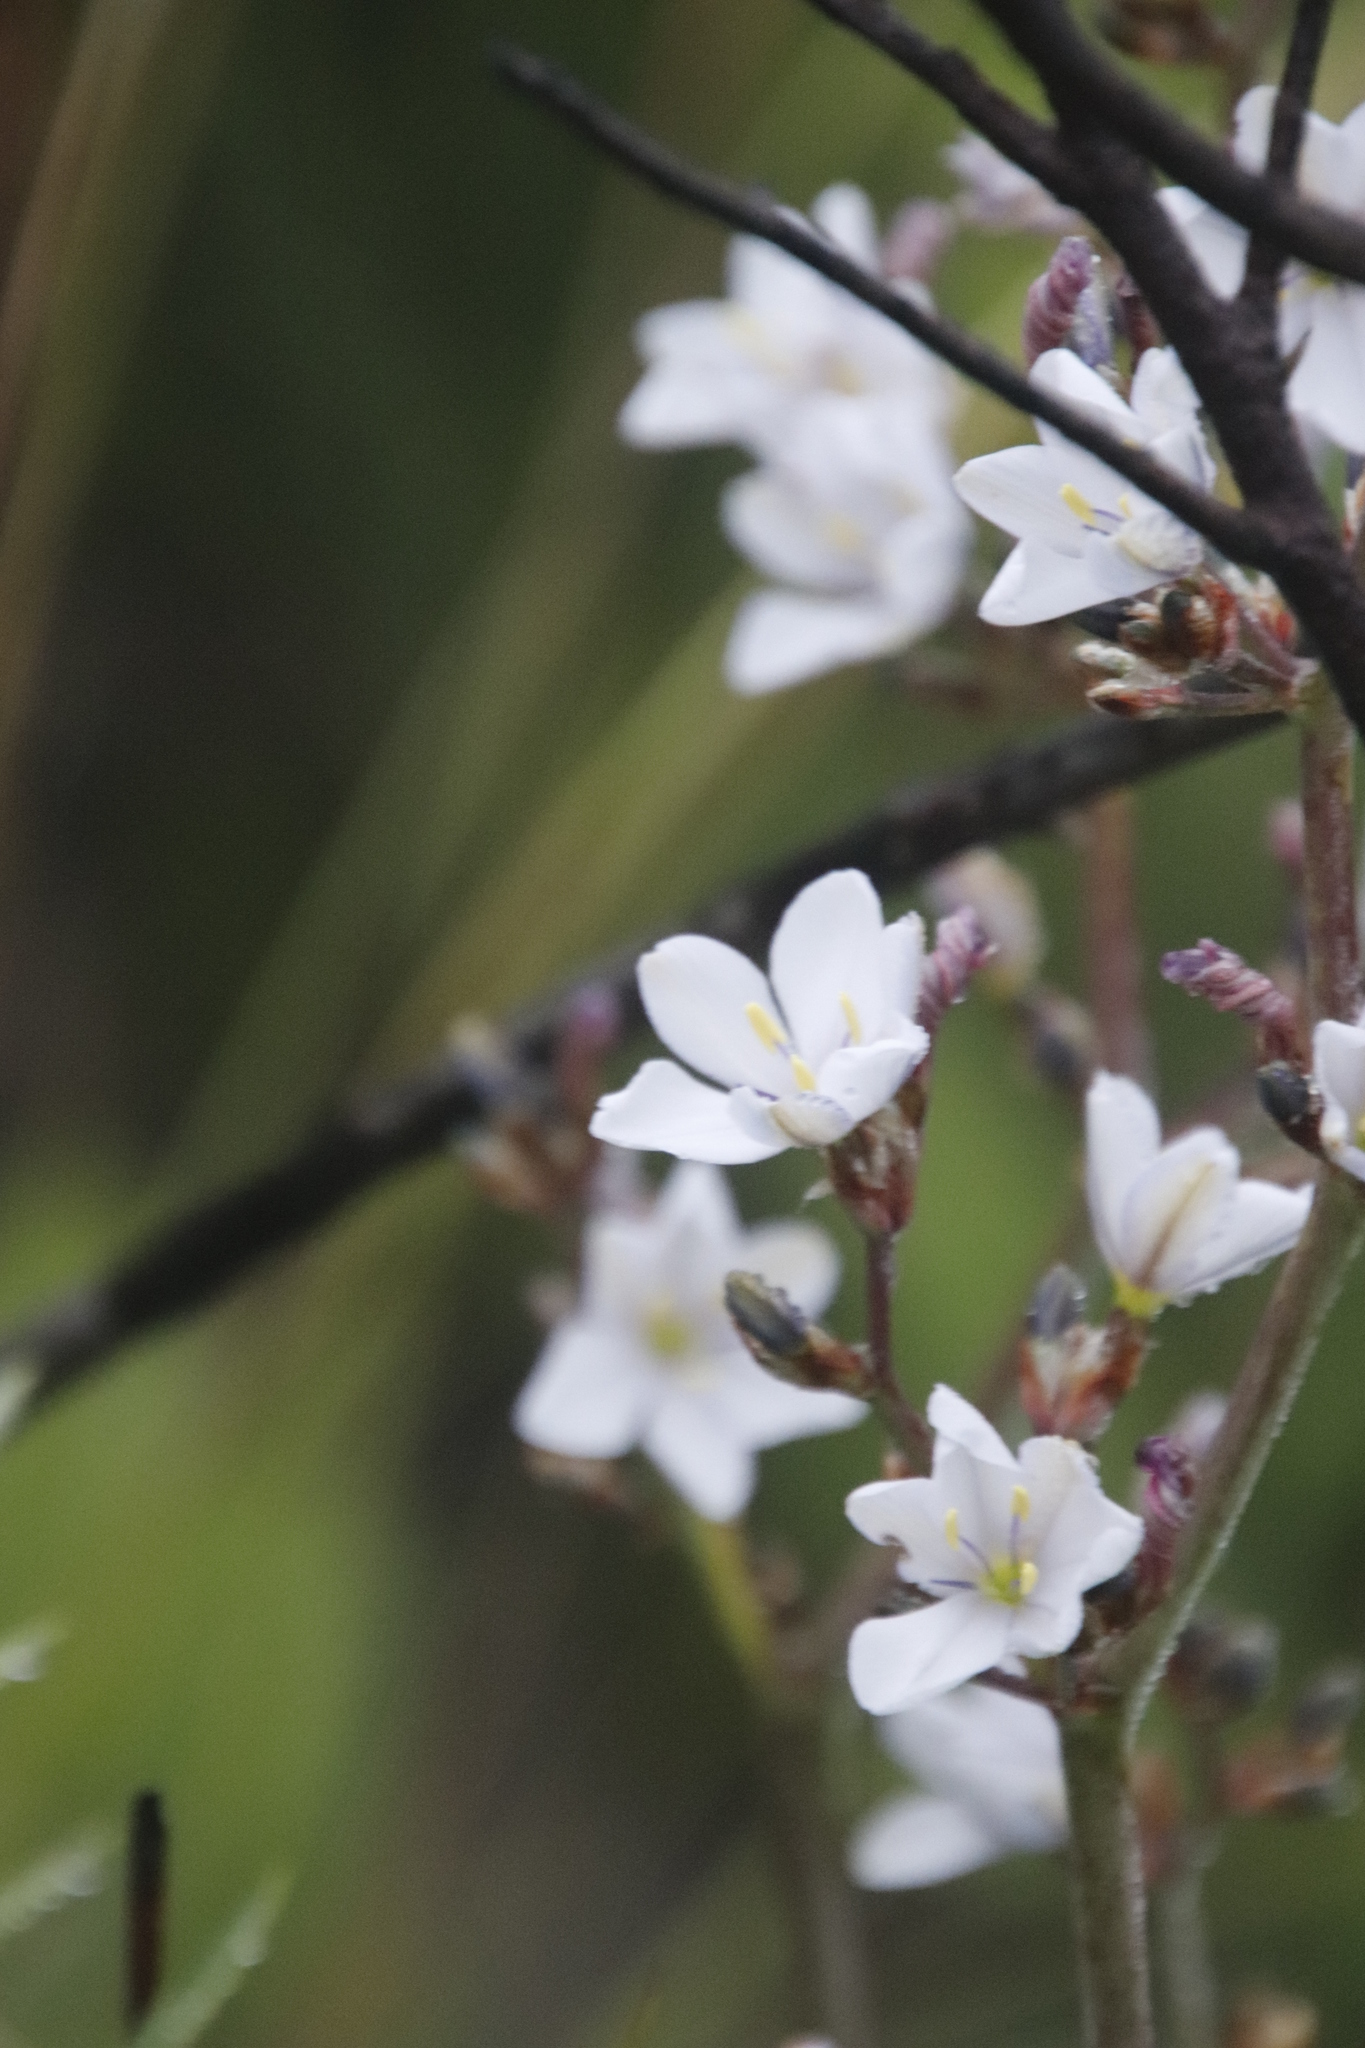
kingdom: Plantae
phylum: Tracheophyta
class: Liliopsida
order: Asparagales
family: Iridaceae
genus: Aristea
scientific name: Aristea bakeri
